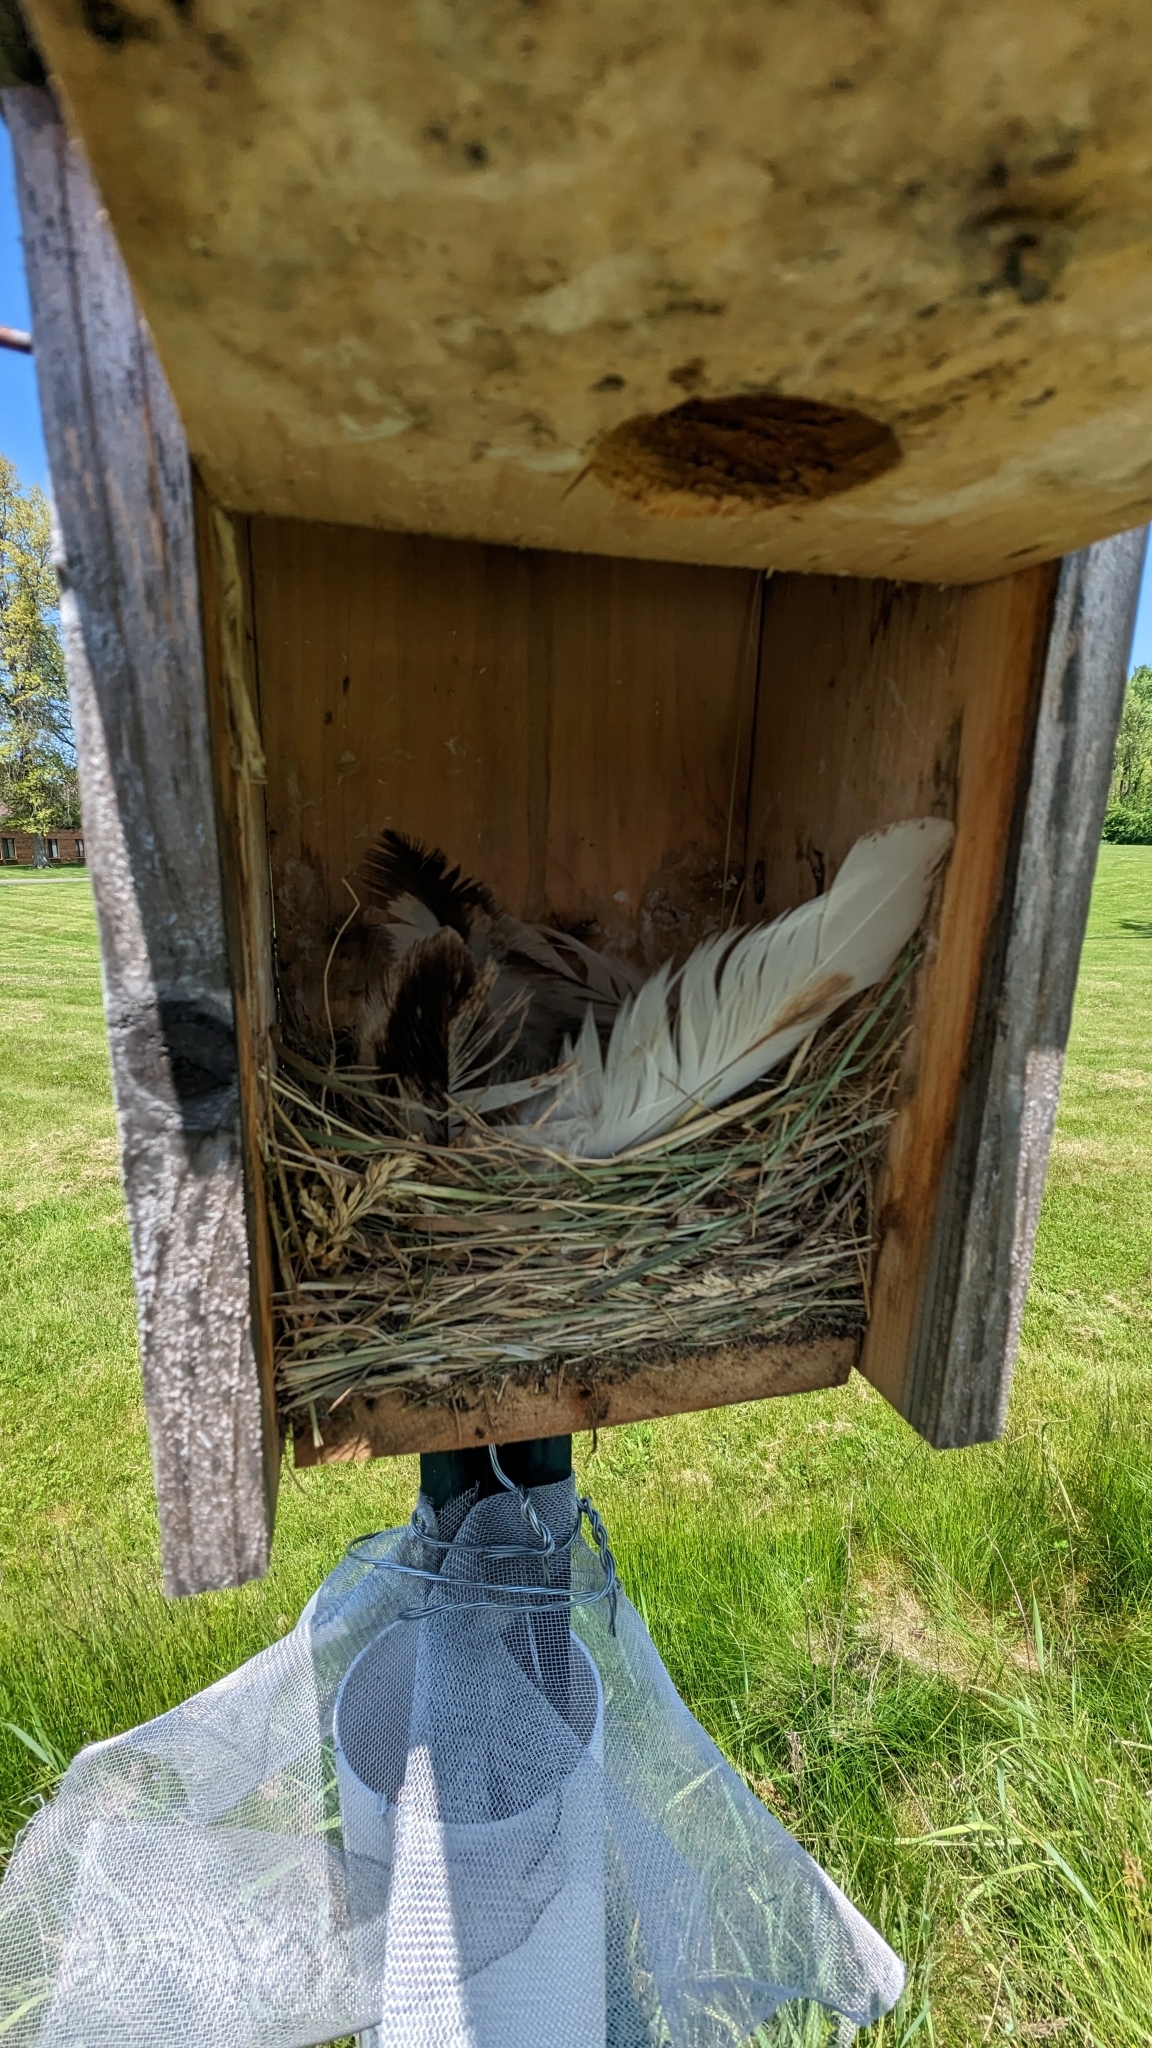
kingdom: Animalia
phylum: Chordata
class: Aves
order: Passeriformes
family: Hirundinidae
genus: Tachycineta
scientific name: Tachycineta bicolor
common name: Tree swallow
